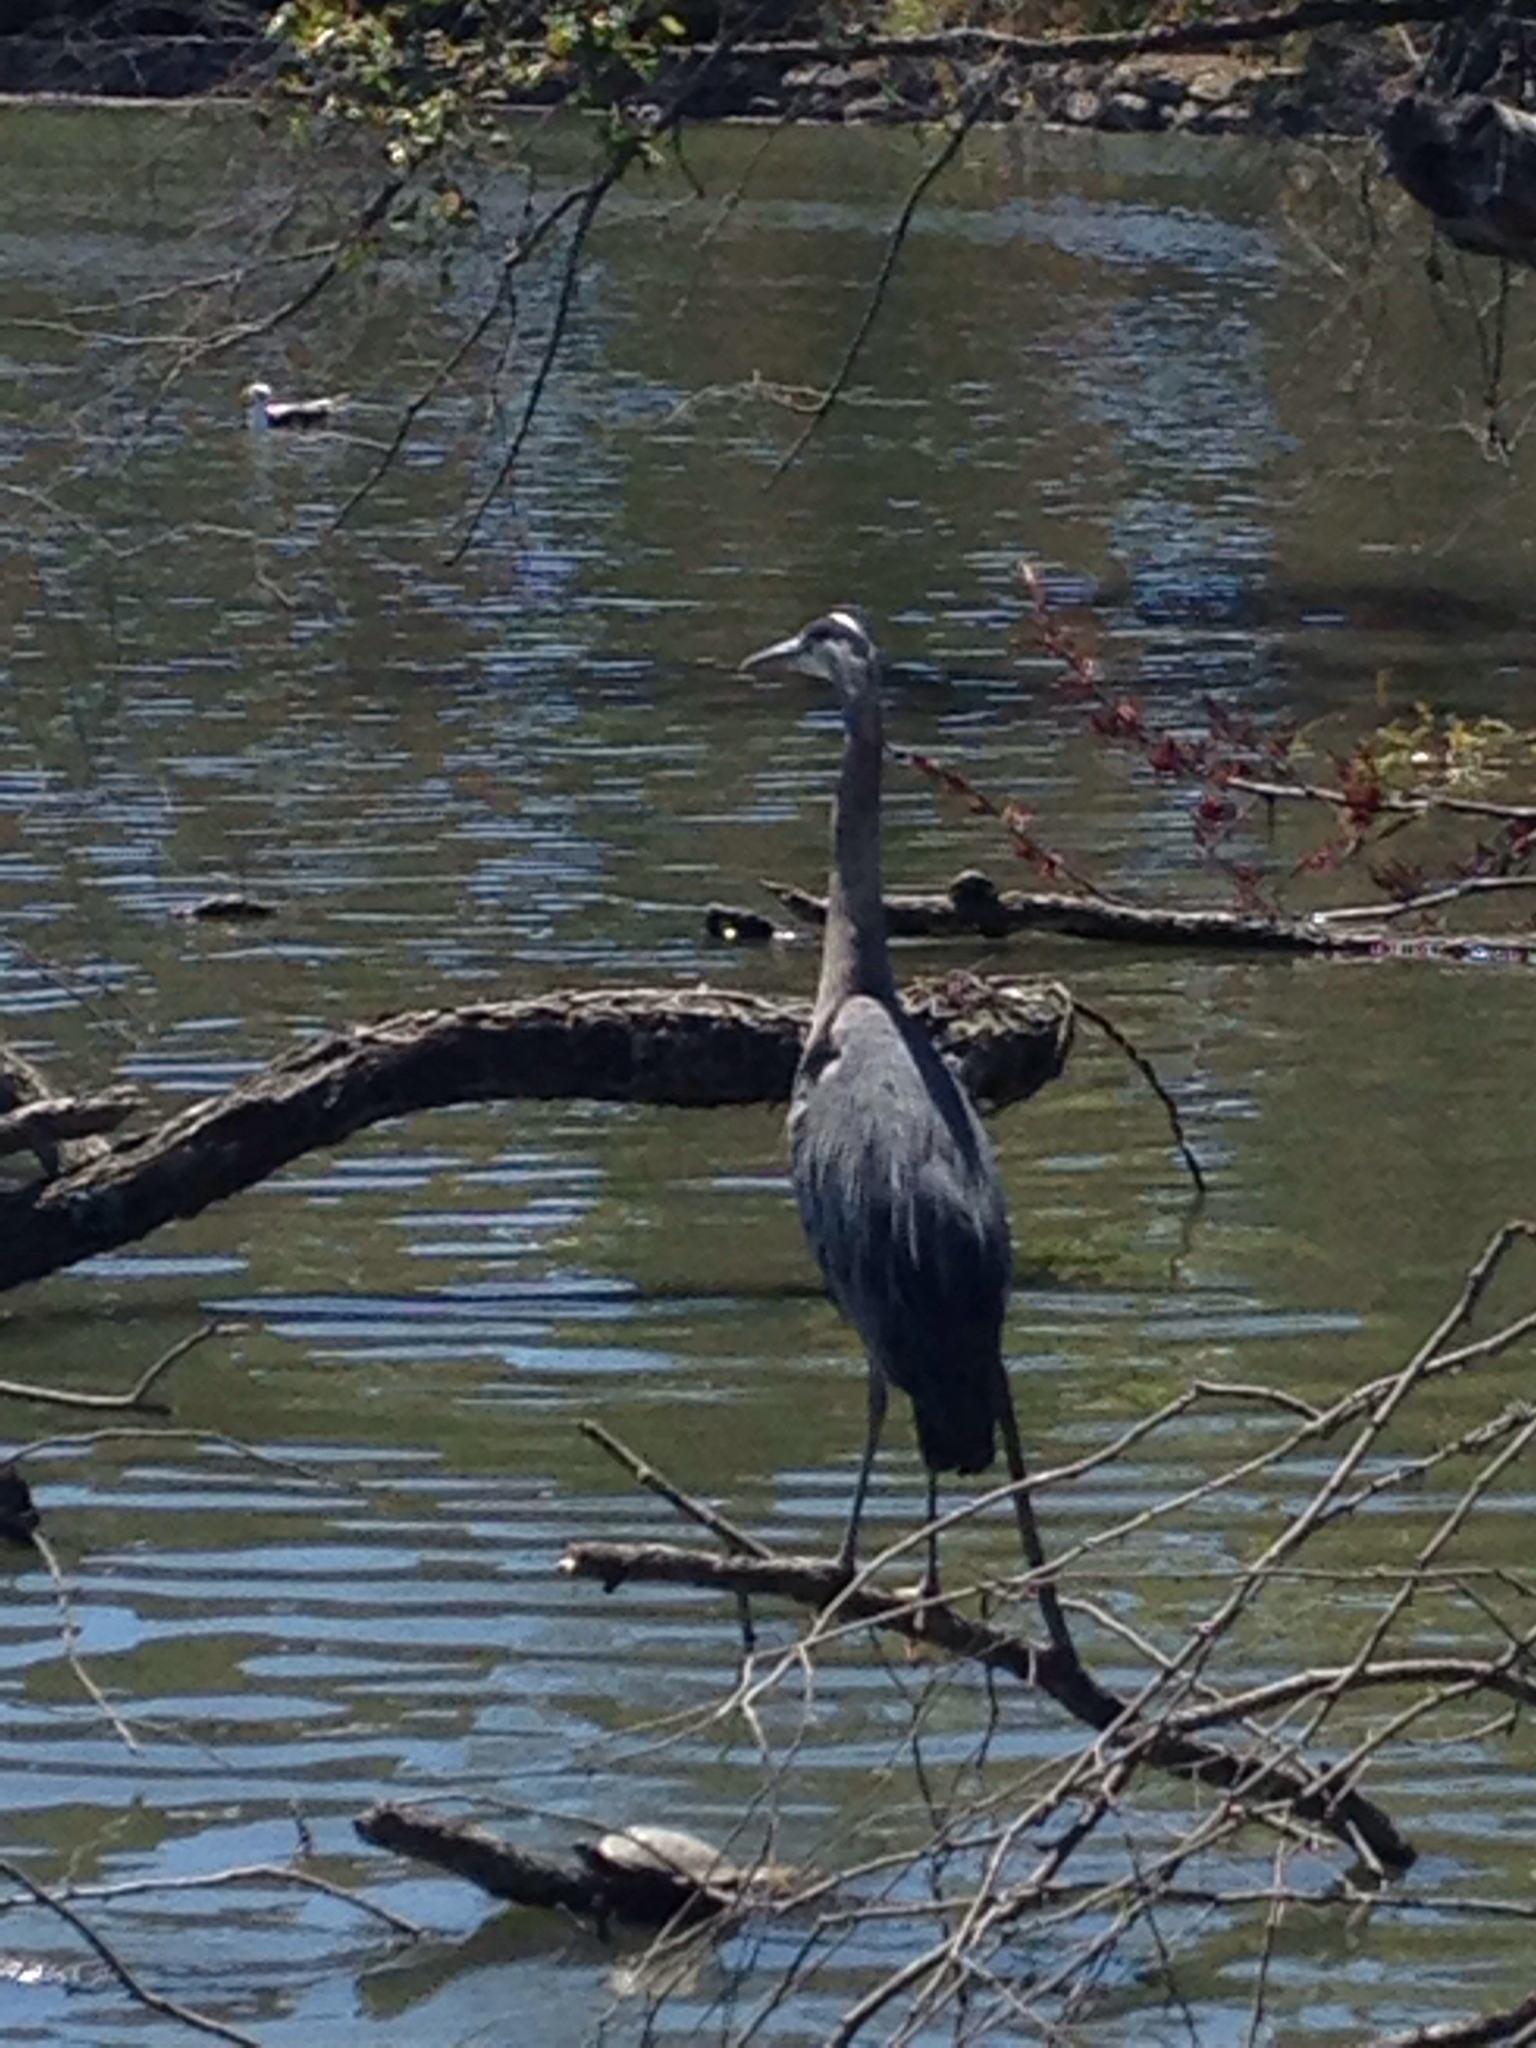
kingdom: Animalia
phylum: Chordata
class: Aves
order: Pelecaniformes
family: Ardeidae
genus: Ardea
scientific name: Ardea herodias
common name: Great blue heron
